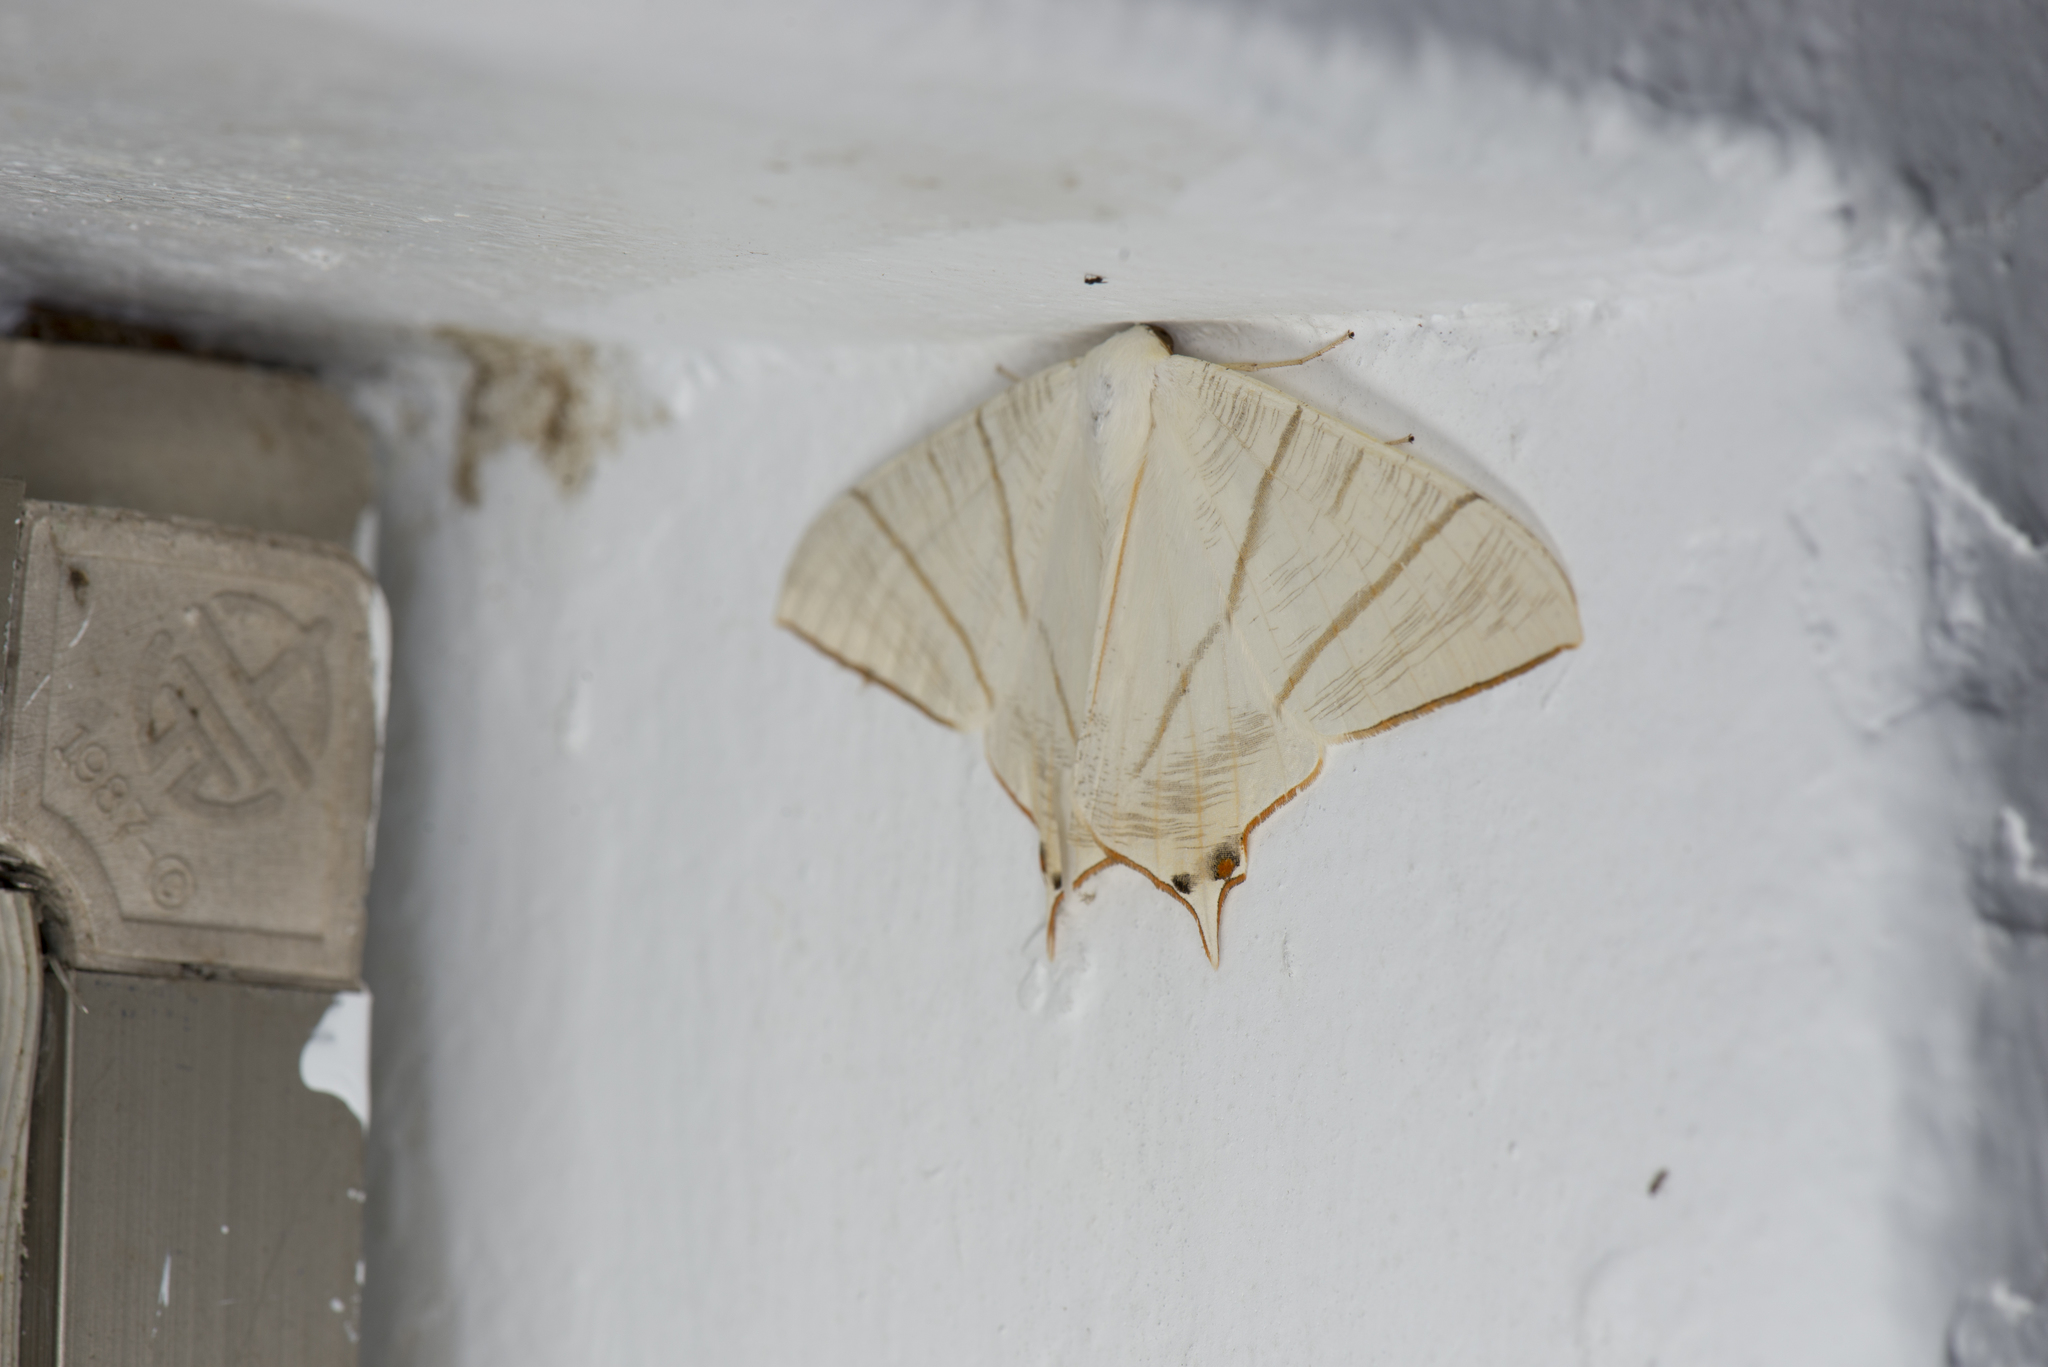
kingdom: Animalia
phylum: Arthropoda
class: Insecta
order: Lepidoptera
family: Geometridae
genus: Ourapteryx
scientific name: Ourapteryx yerburii
